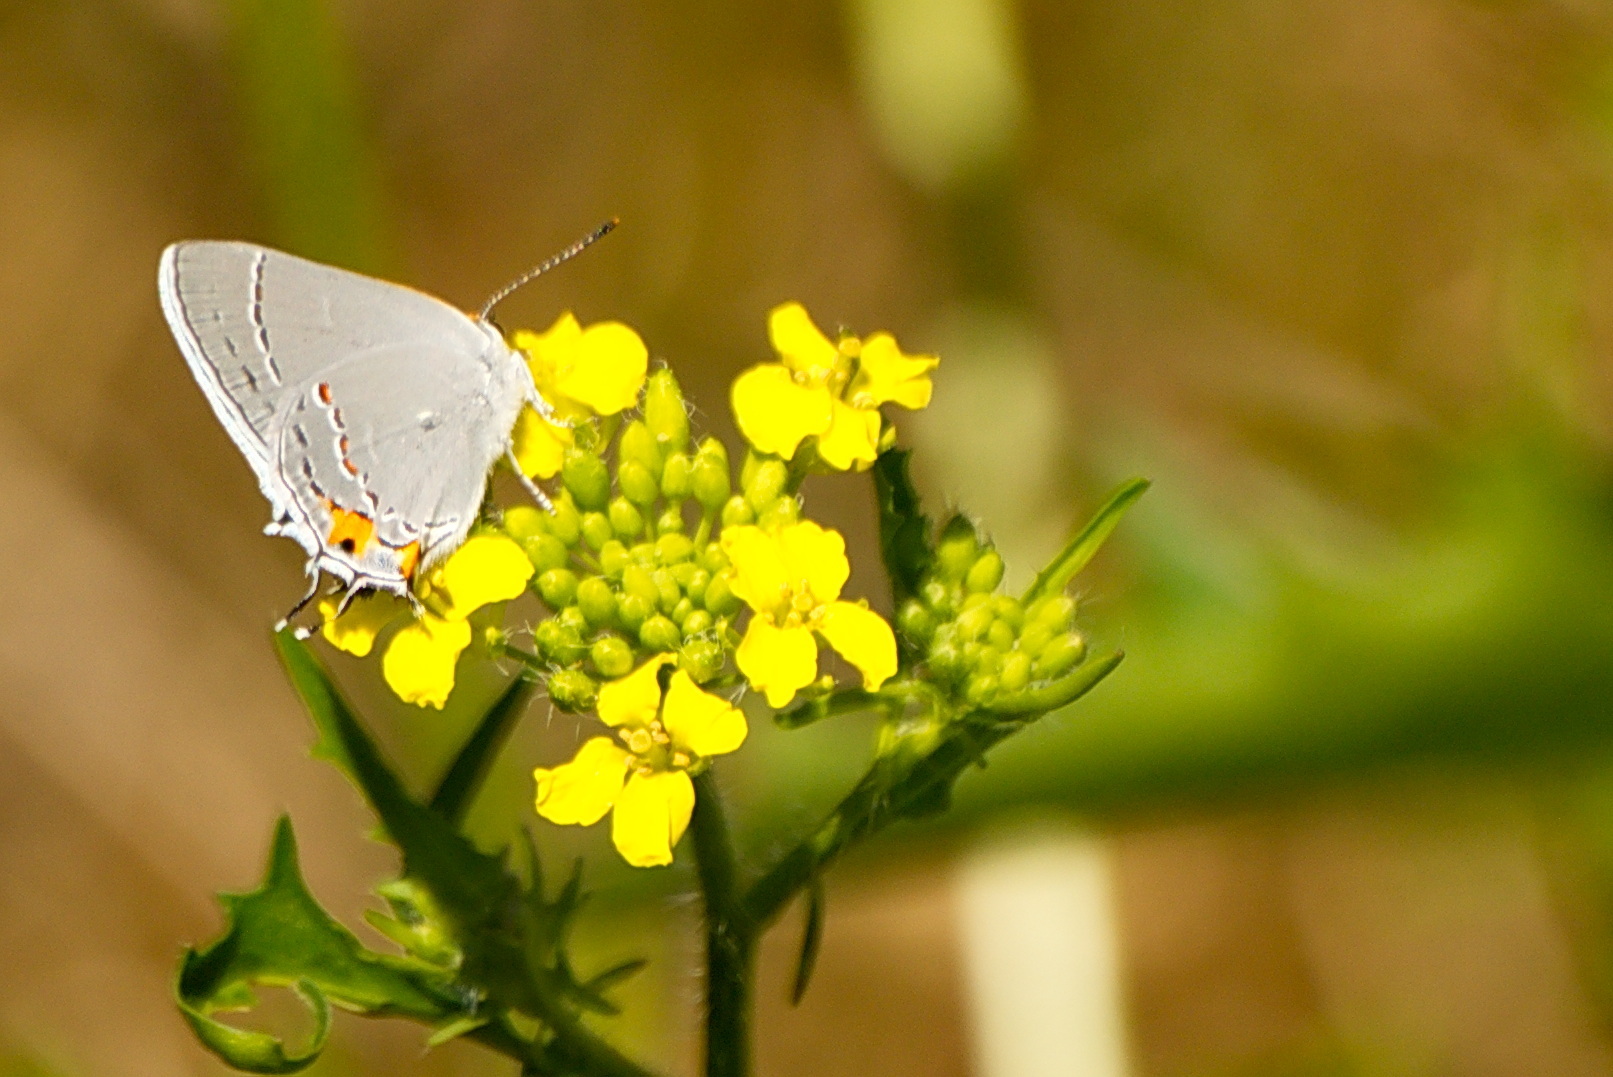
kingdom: Animalia
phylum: Arthropoda
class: Insecta
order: Lepidoptera
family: Lycaenidae
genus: Strymon
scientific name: Strymon melinus
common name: Gray hairstreak
